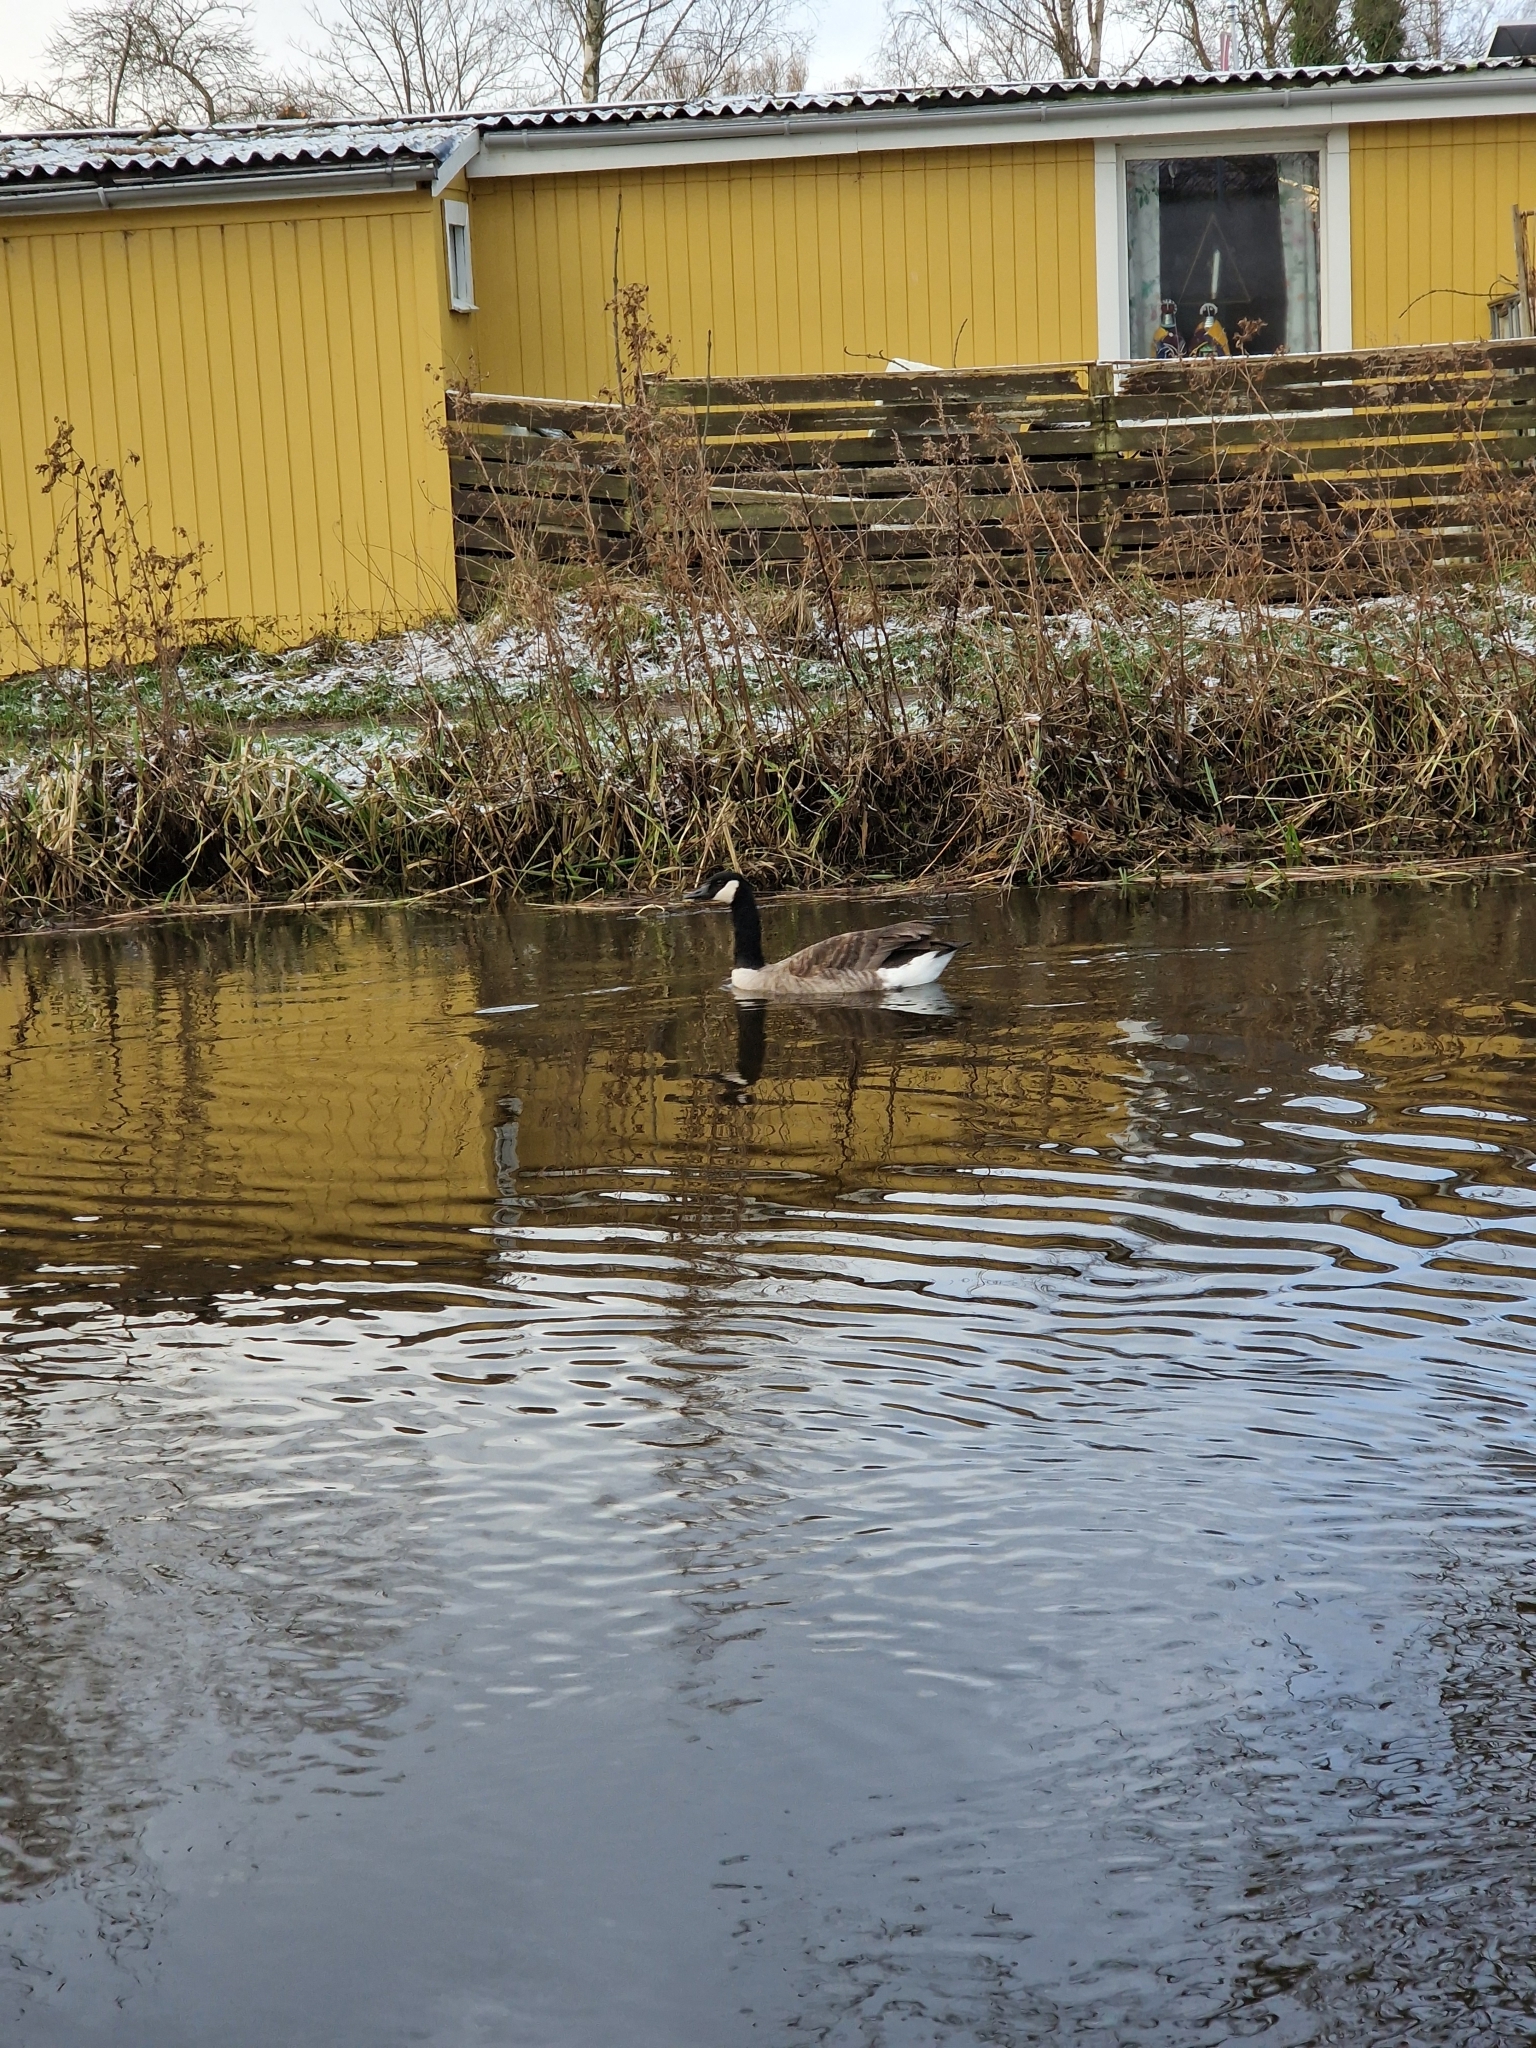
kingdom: Animalia
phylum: Chordata
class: Aves
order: Anseriformes
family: Anatidae
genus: Branta
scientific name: Branta canadensis
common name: Canada goose
